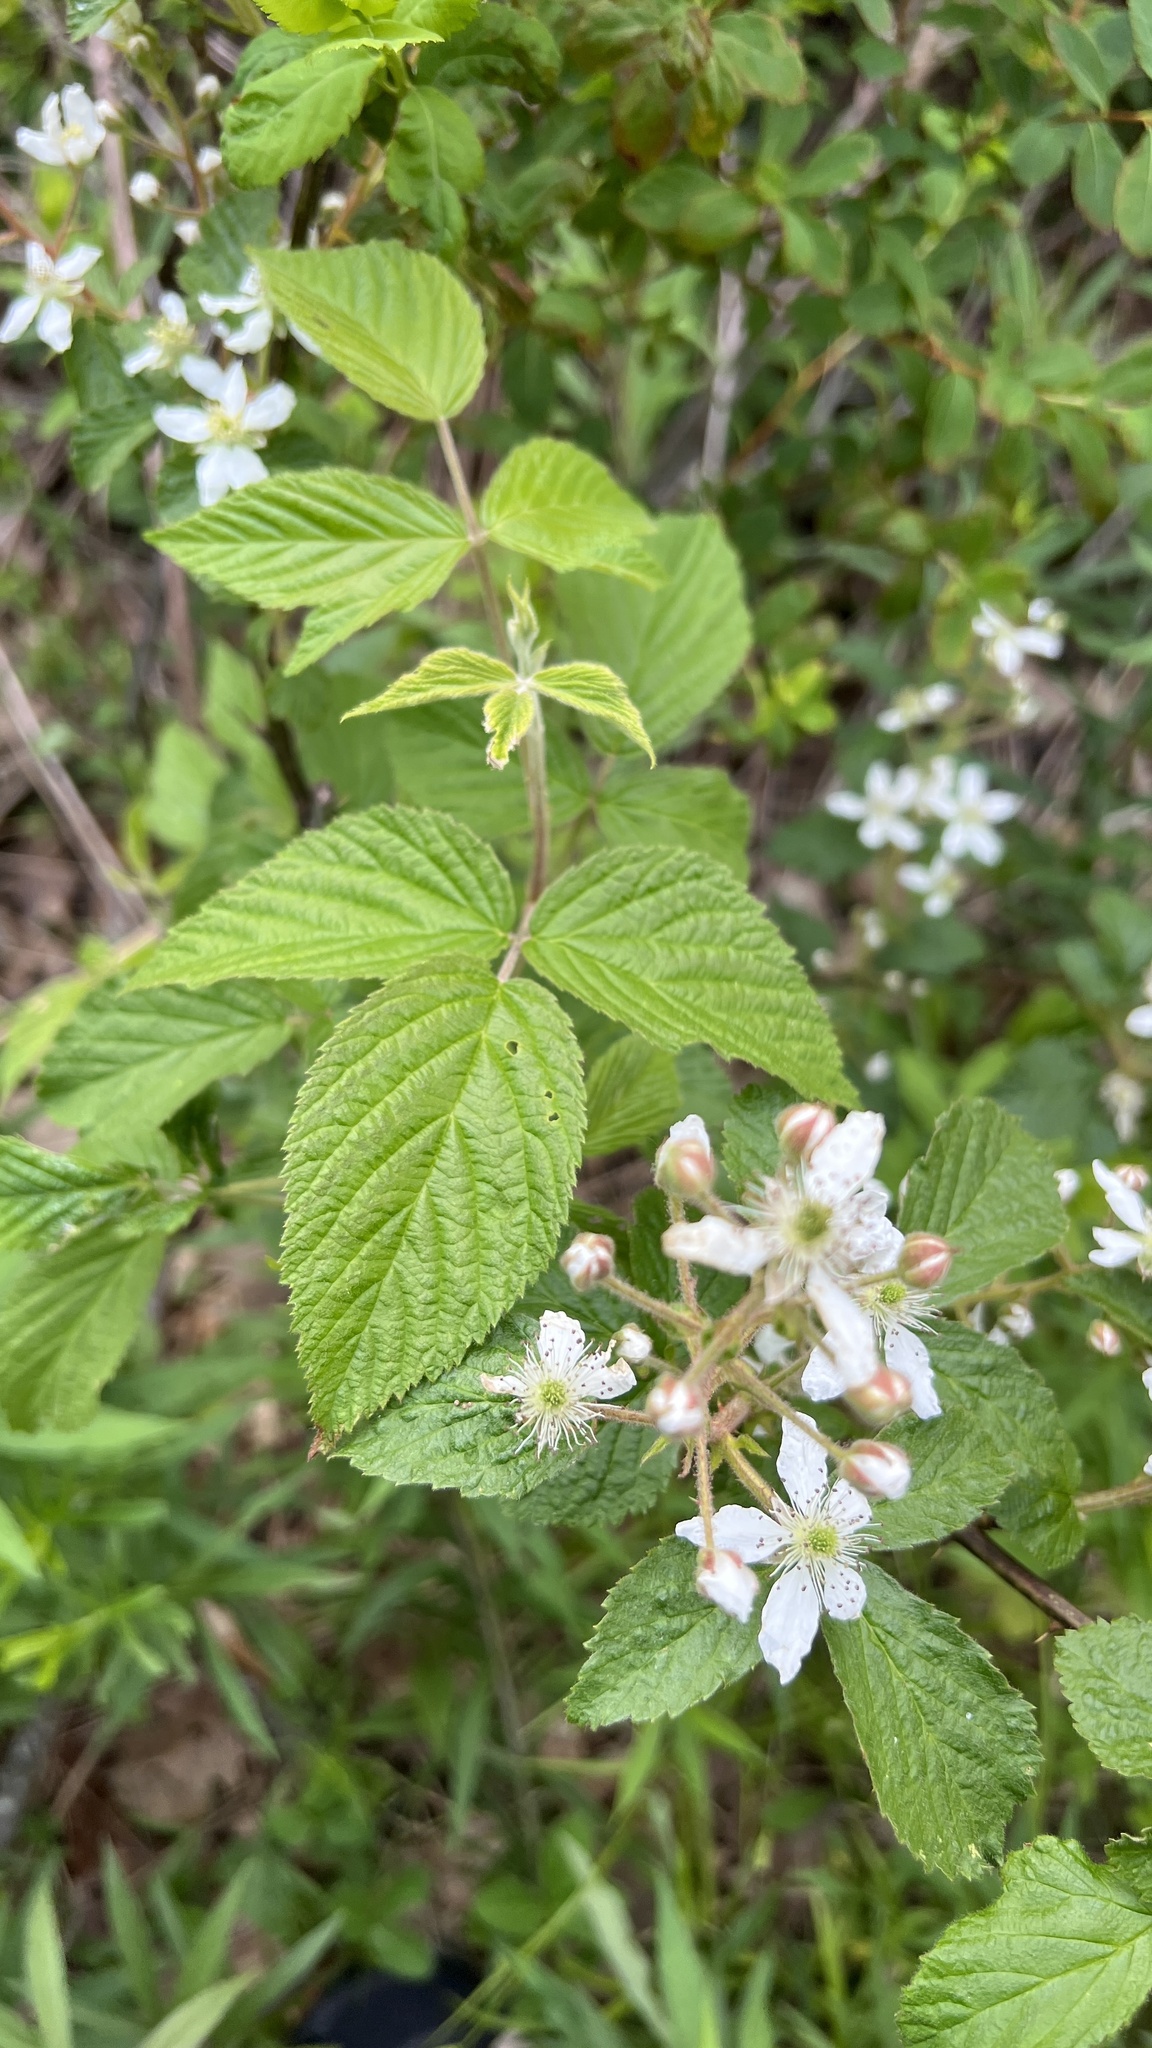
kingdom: Plantae
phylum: Tracheophyta
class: Magnoliopsida
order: Rosales
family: Rosaceae
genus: Rubus
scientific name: Rubus allegheniensis
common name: Allegheny blackberry
